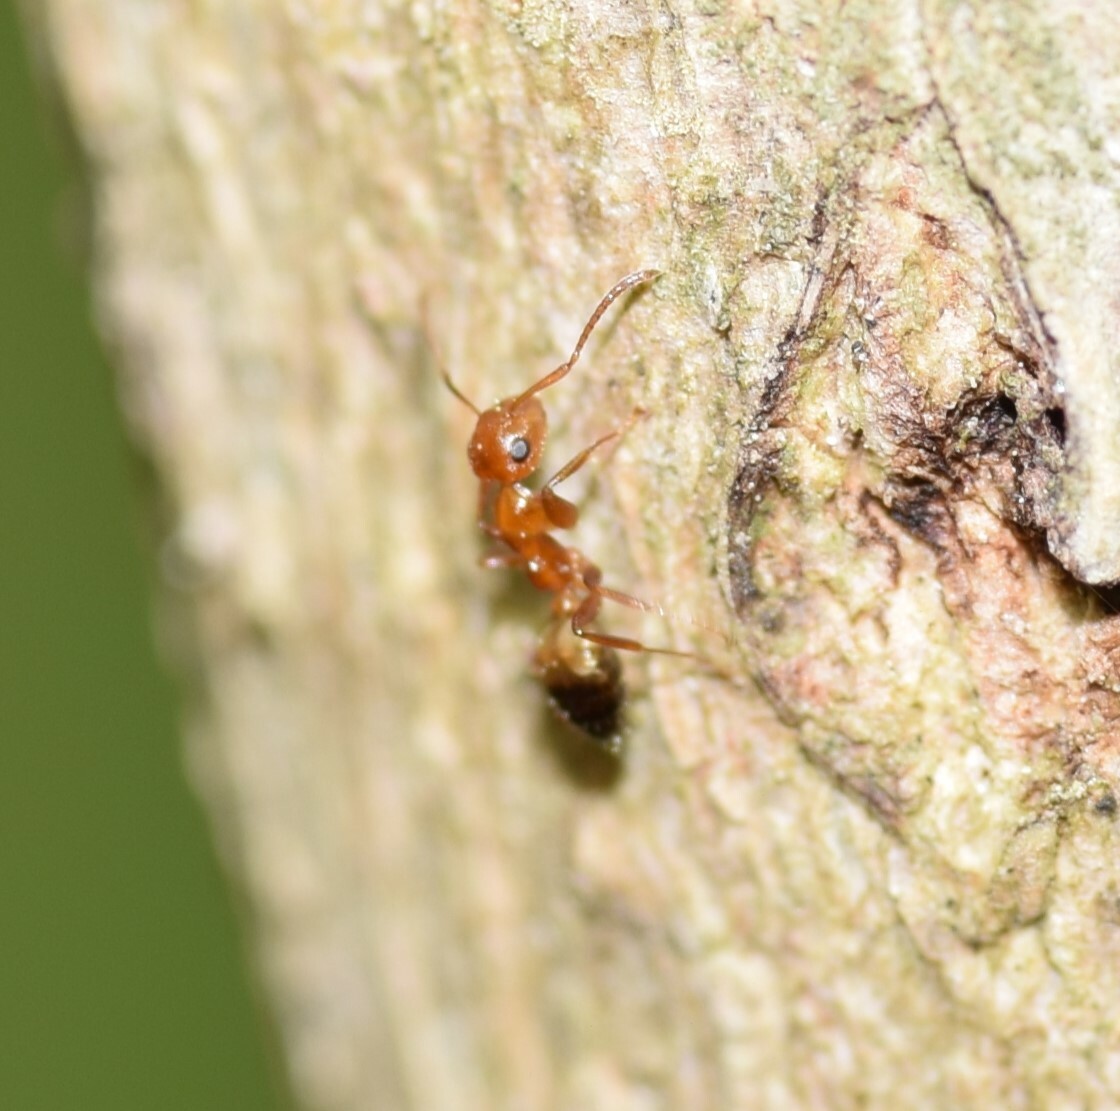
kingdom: Animalia
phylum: Arthropoda
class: Insecta
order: Hymenoptera
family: Formicidae
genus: Colobopsis
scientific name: Colobopsis impressa
